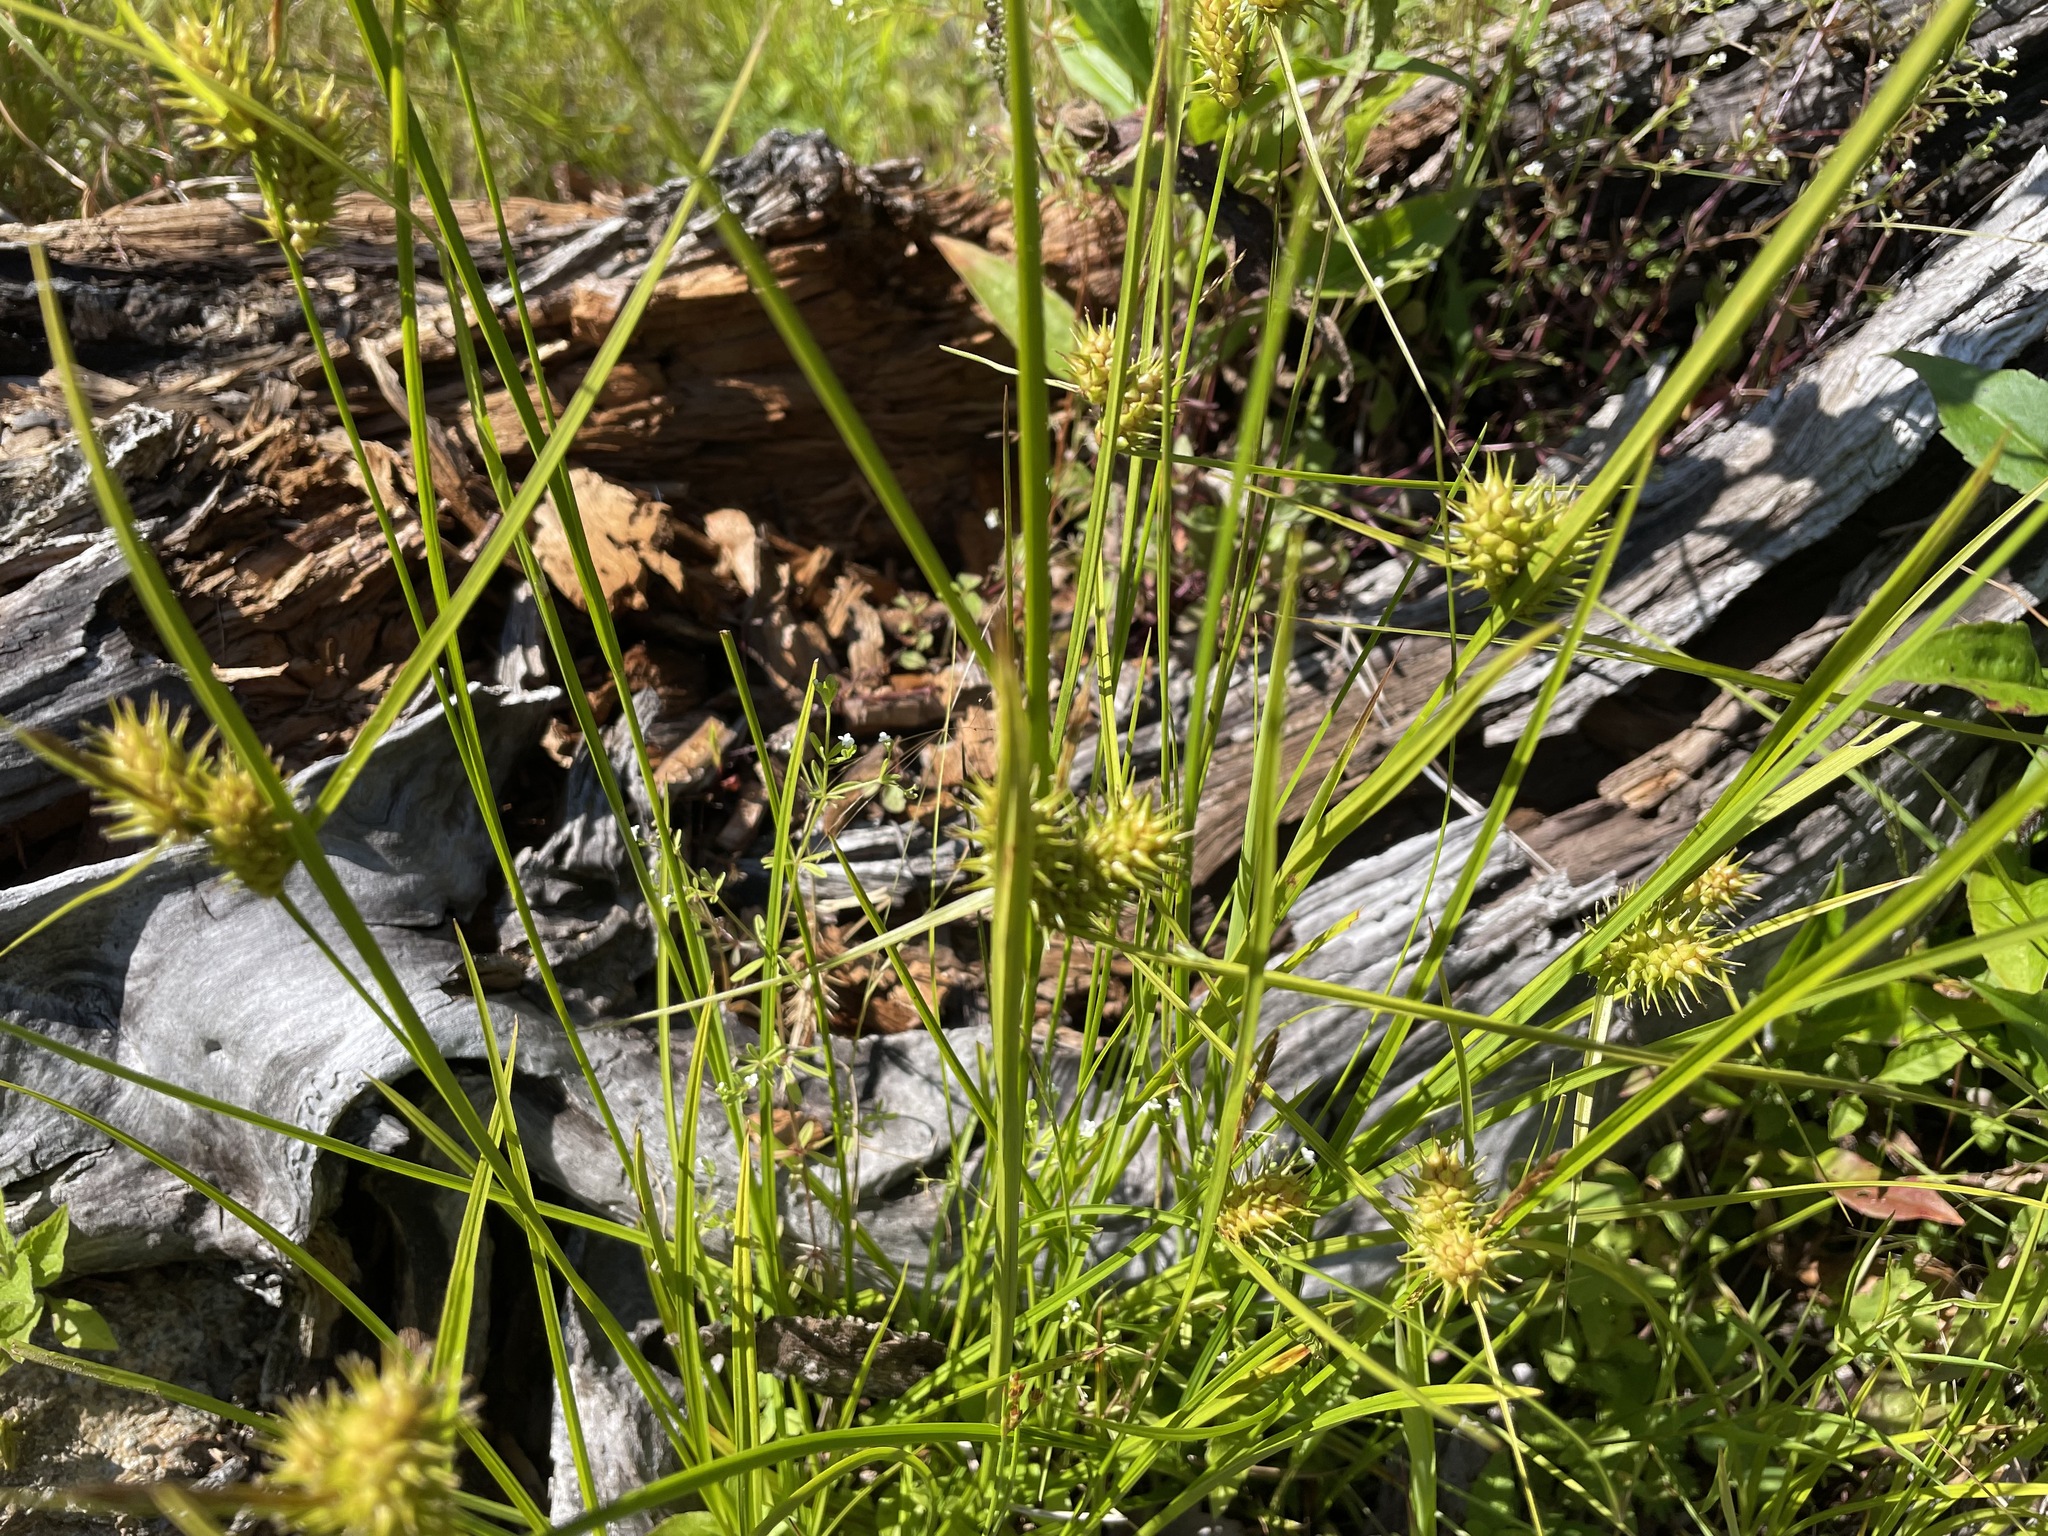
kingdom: Plantae
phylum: Tracheophyta
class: Liliopsida
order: Poales
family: Cyperaceae
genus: Carex
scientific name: Carex lurida
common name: Sallow sedge
